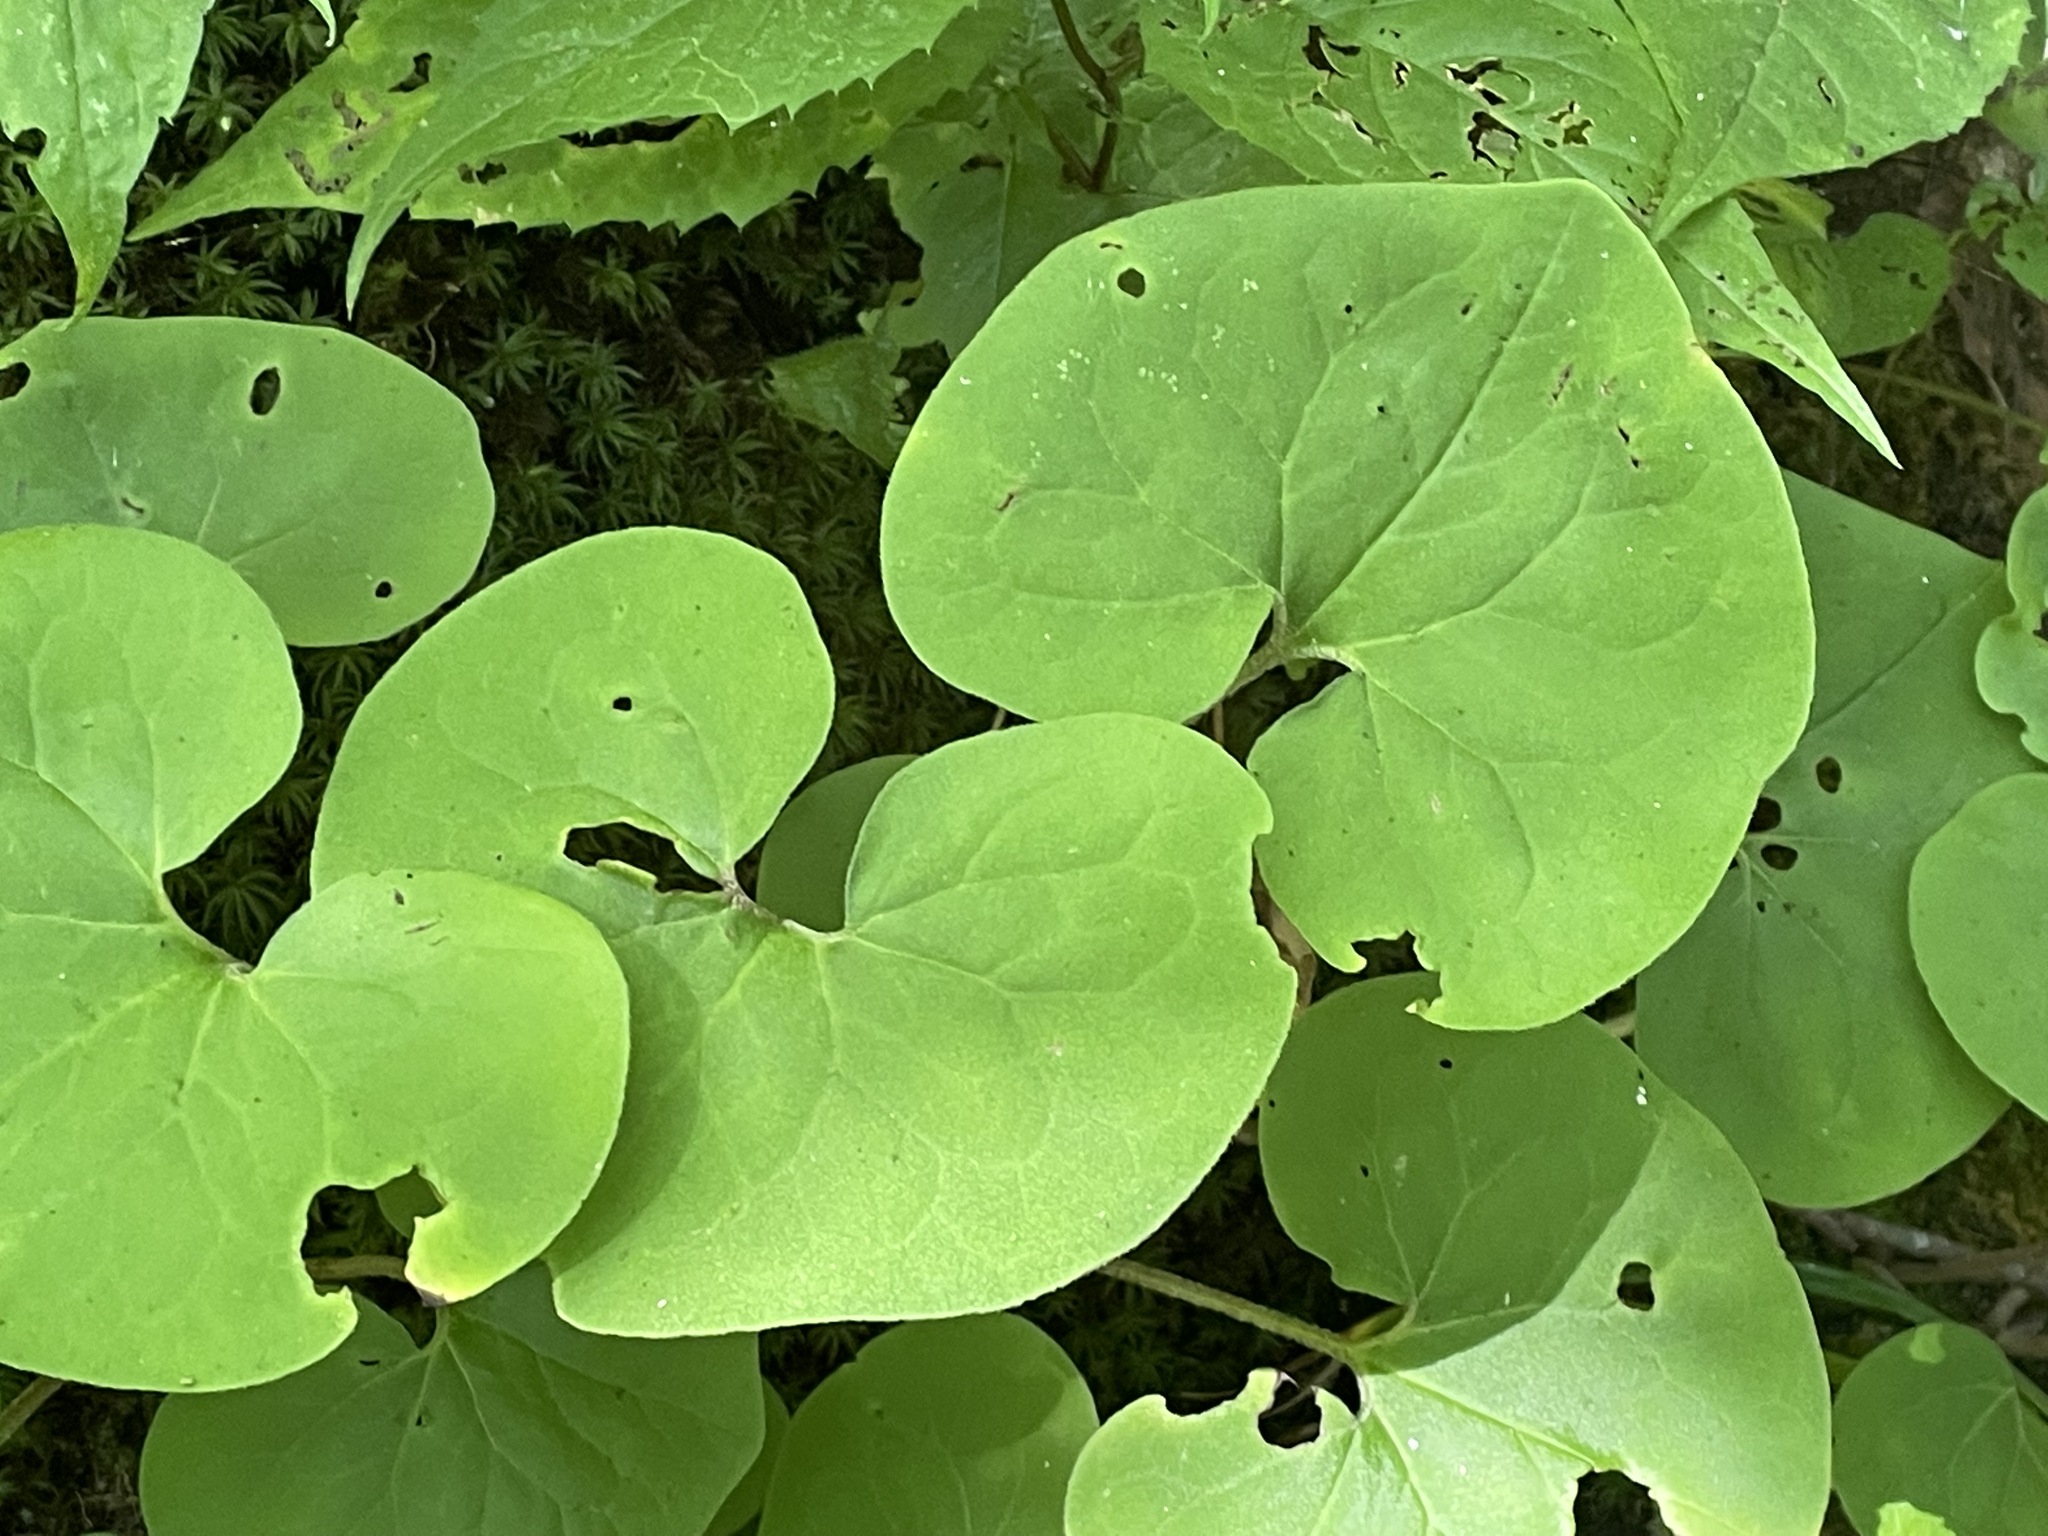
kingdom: Plantae
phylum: Tracheophyta
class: Magnoliopsida
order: Piperales
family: Aristolochiaceae
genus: Asarum
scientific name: Asarum canadense
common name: Wild ginger
